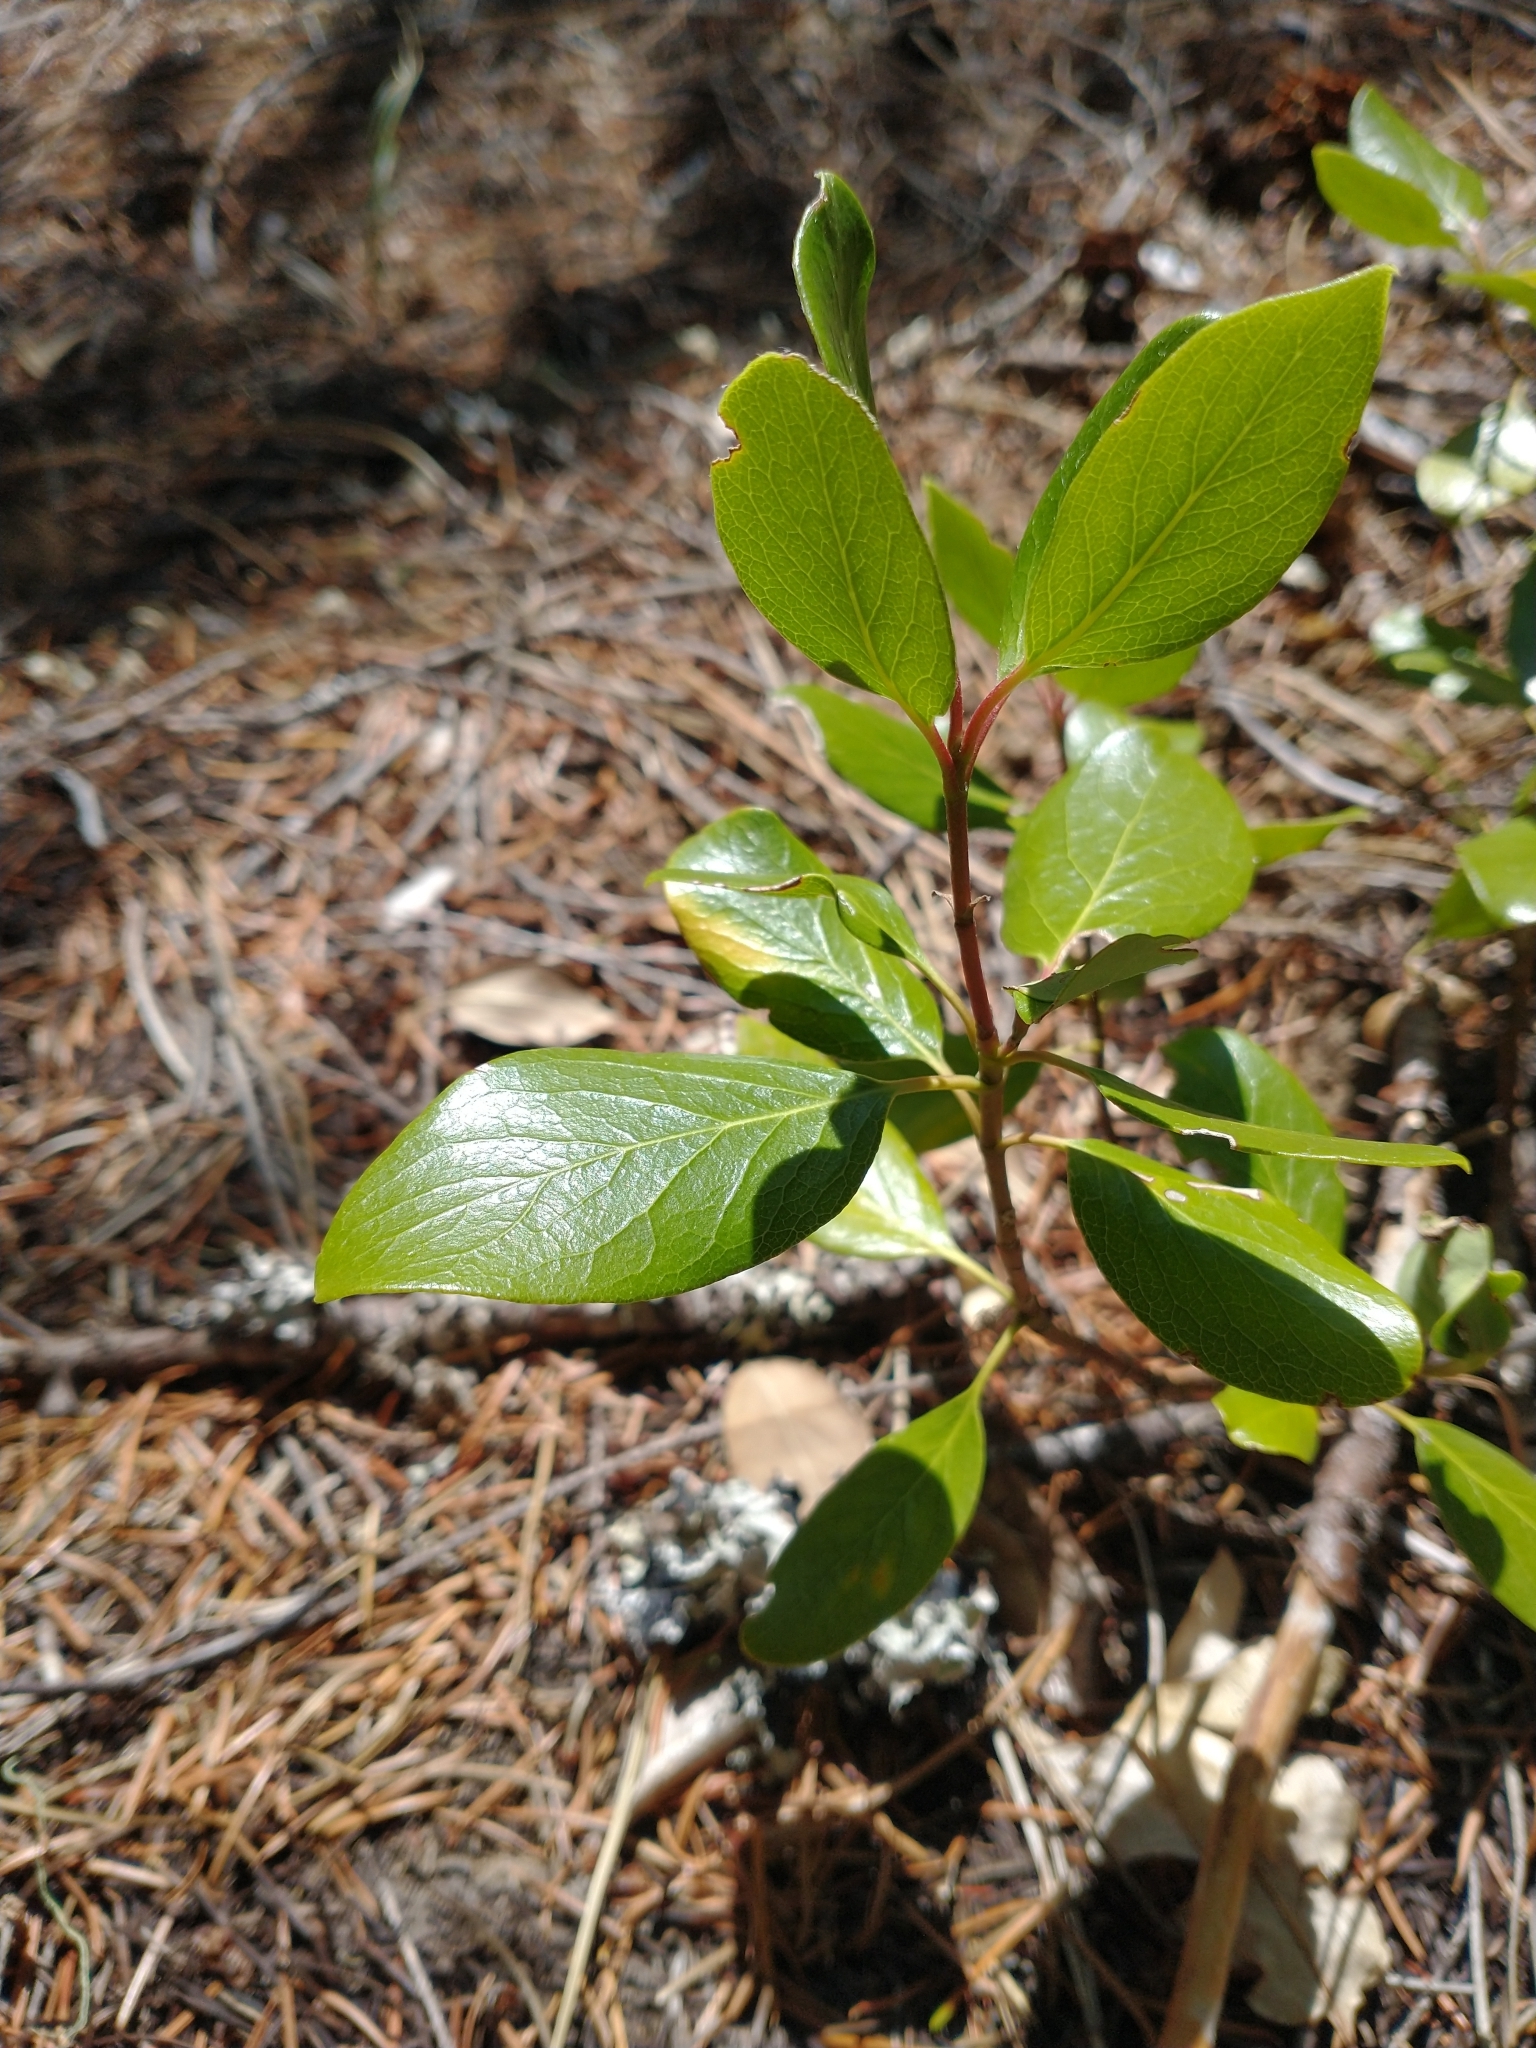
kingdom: Plantae
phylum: Tracheophyta
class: Magnoliopsida
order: Garryales
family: Garryaceae
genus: Garrya
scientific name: Garrya fremontii
